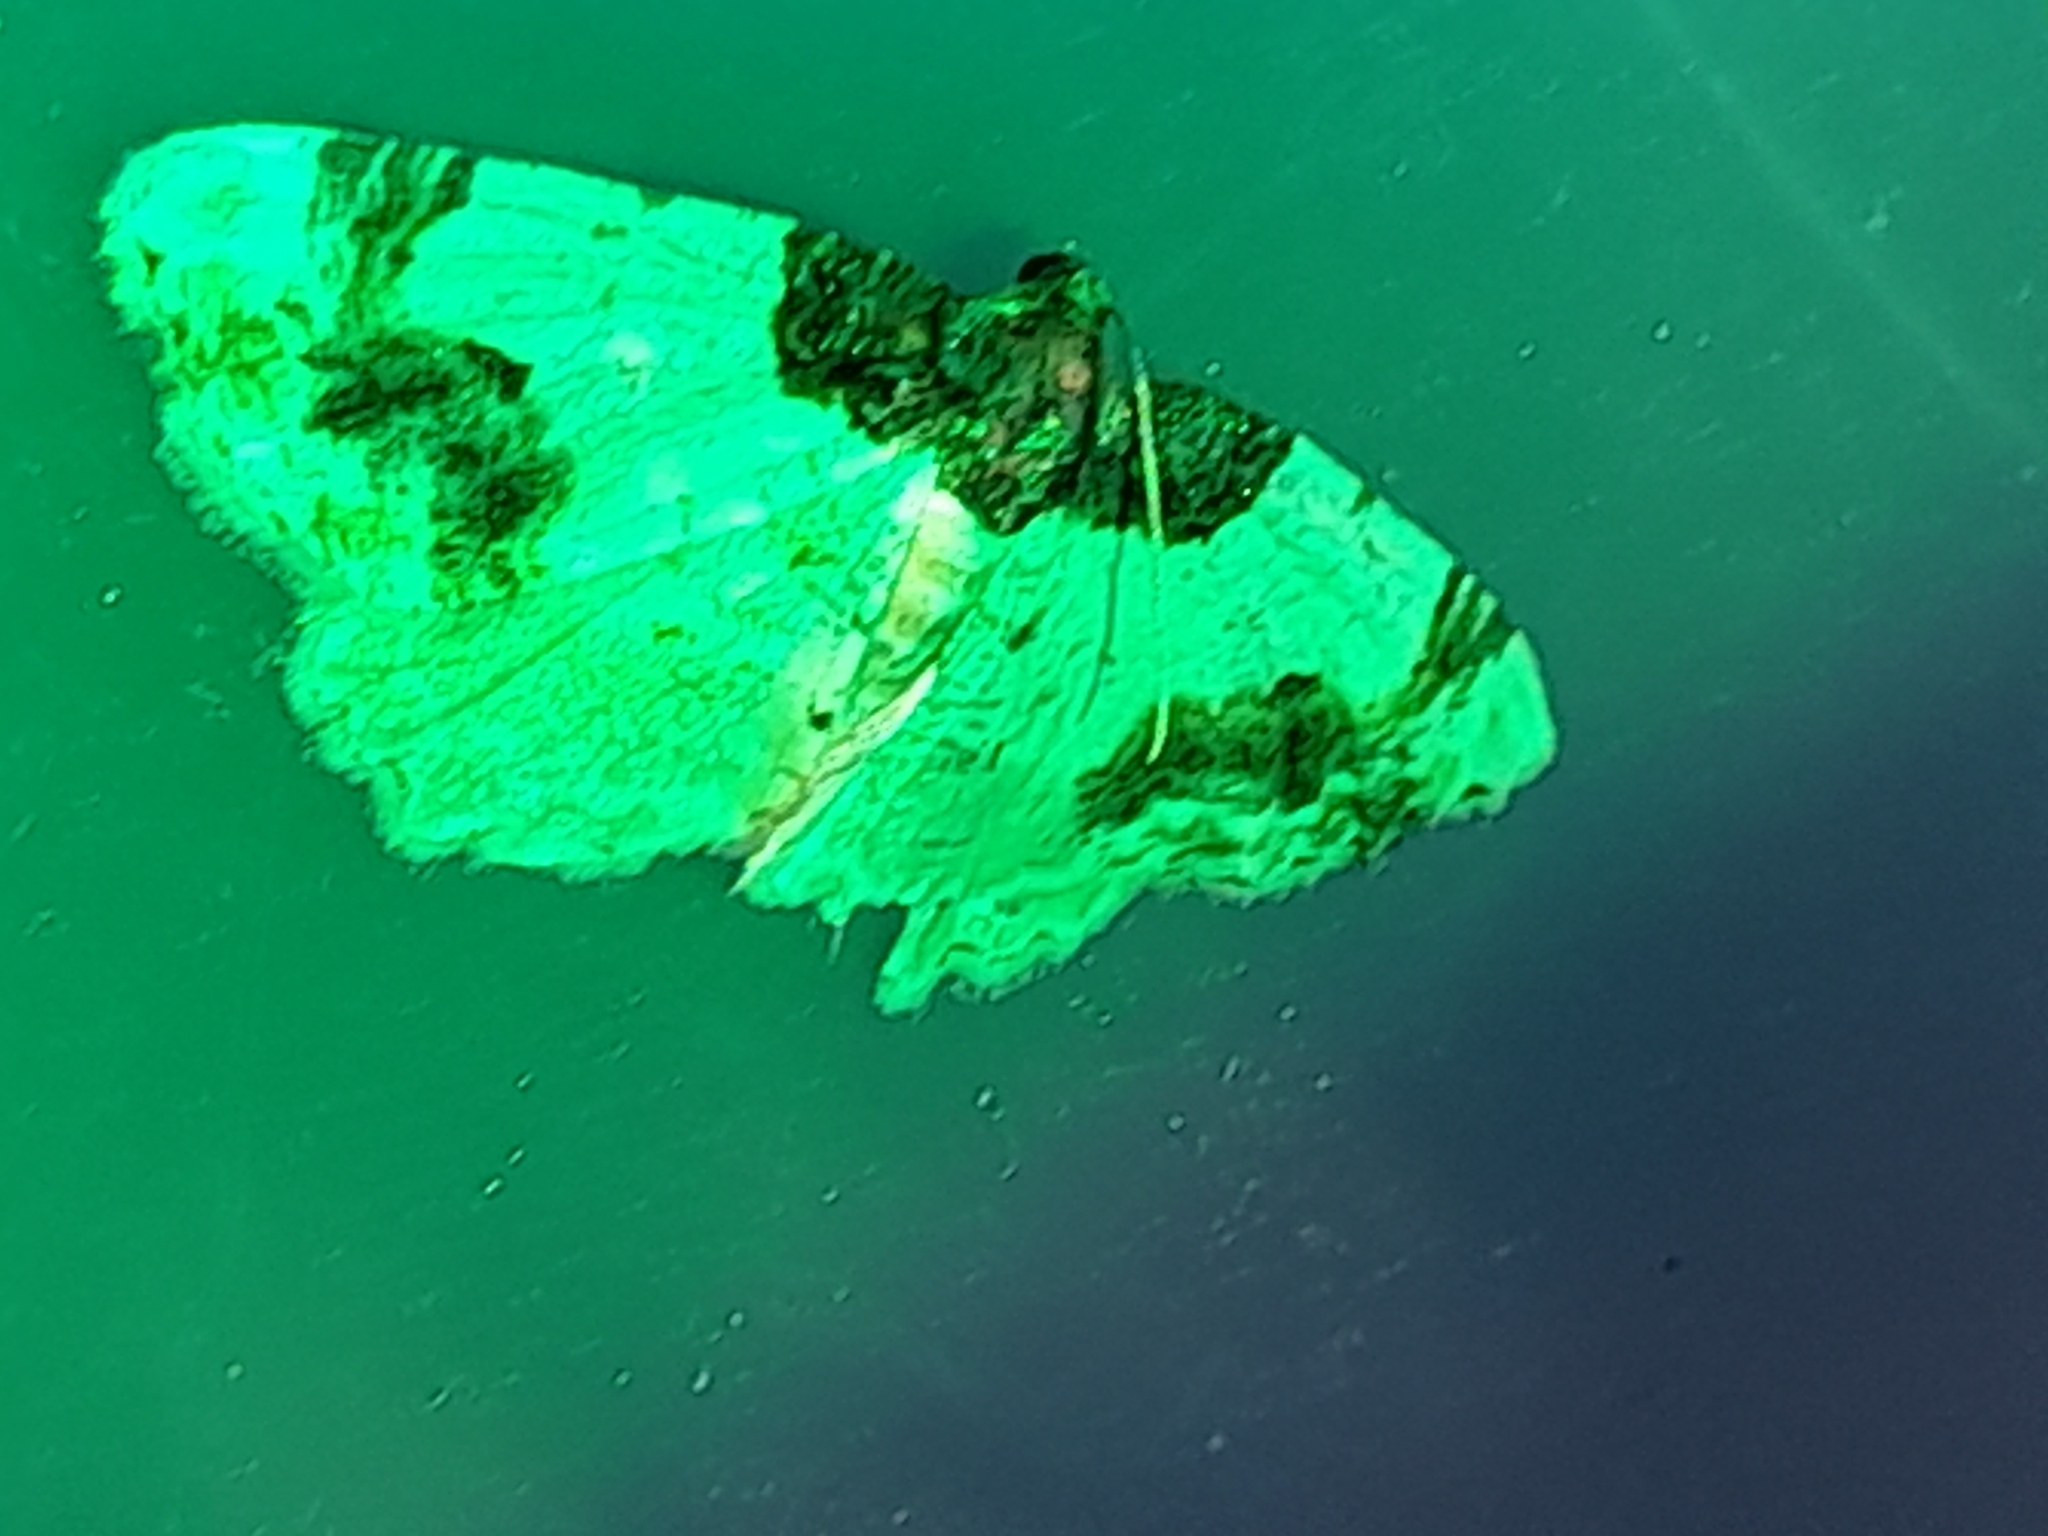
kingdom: Animalia
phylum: Arthropoda
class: Insecta
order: Lepidoptera
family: Geometridae
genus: Ligdia
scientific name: Ligdia adustata
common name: Scorched carpet
